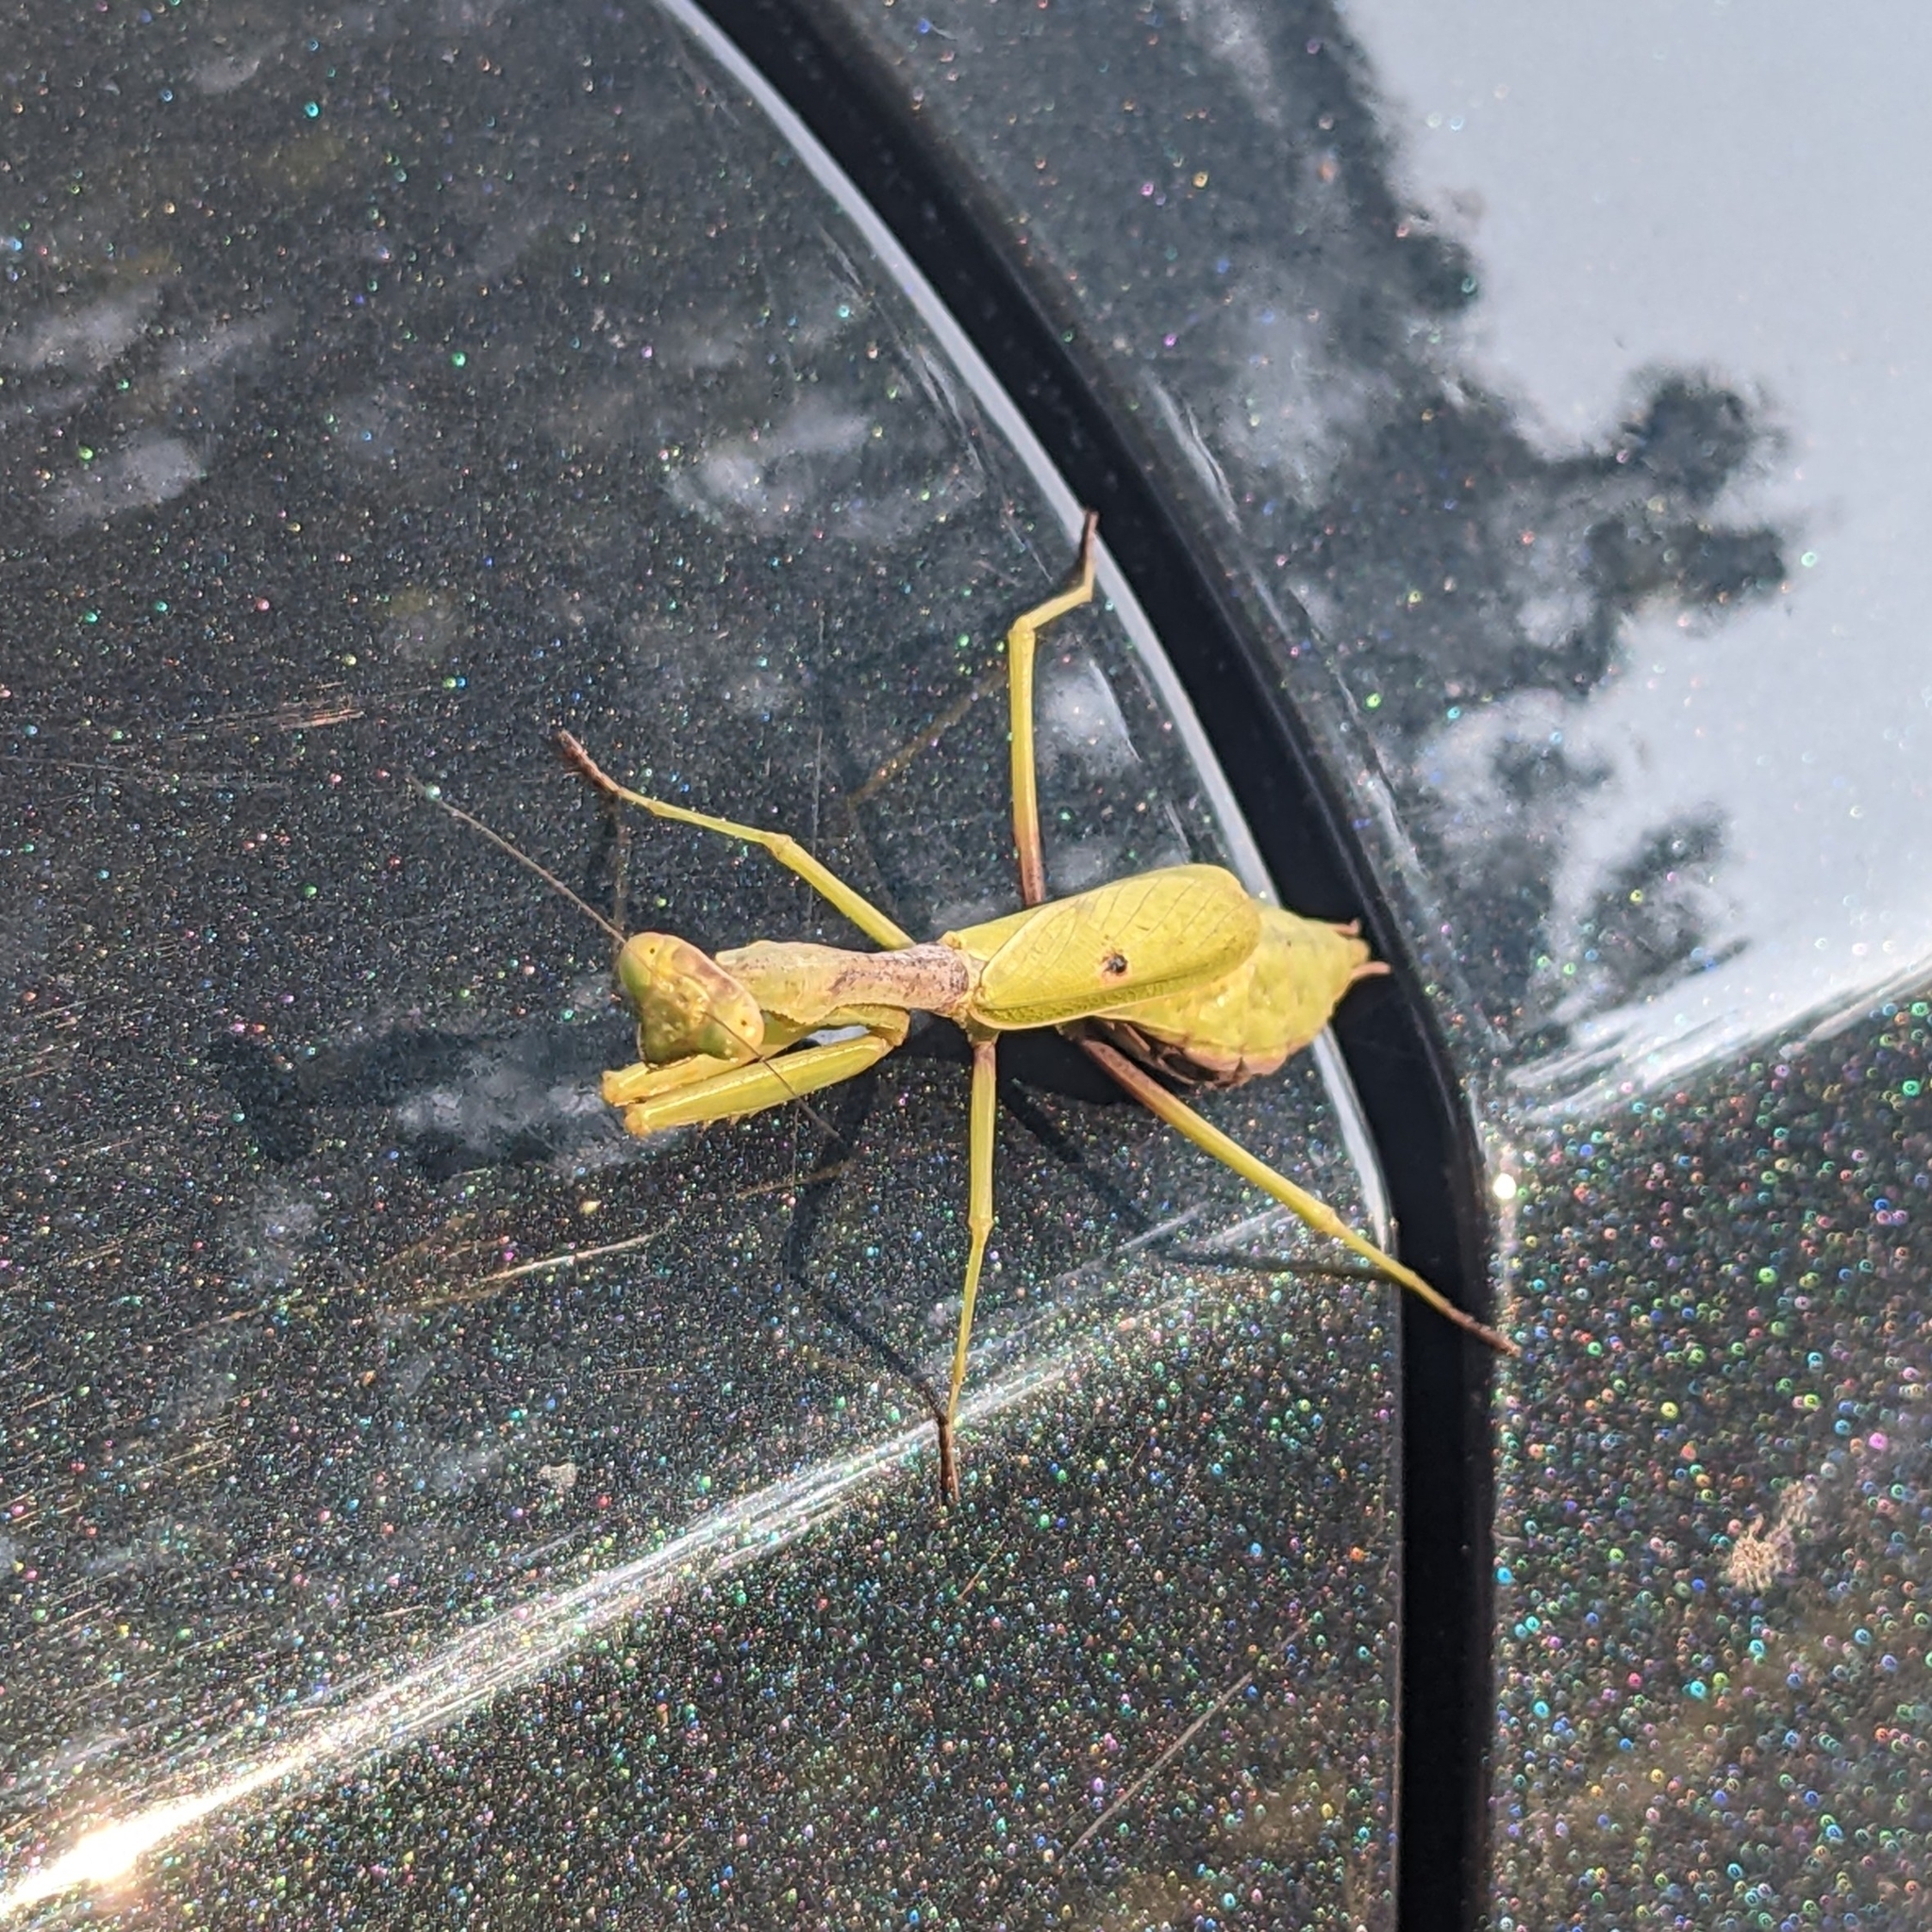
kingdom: Animalia
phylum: Arthropoda
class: Insecta
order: Mantodea
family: Mantidae
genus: Stagmomantis
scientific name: Stagmomantis carolina
